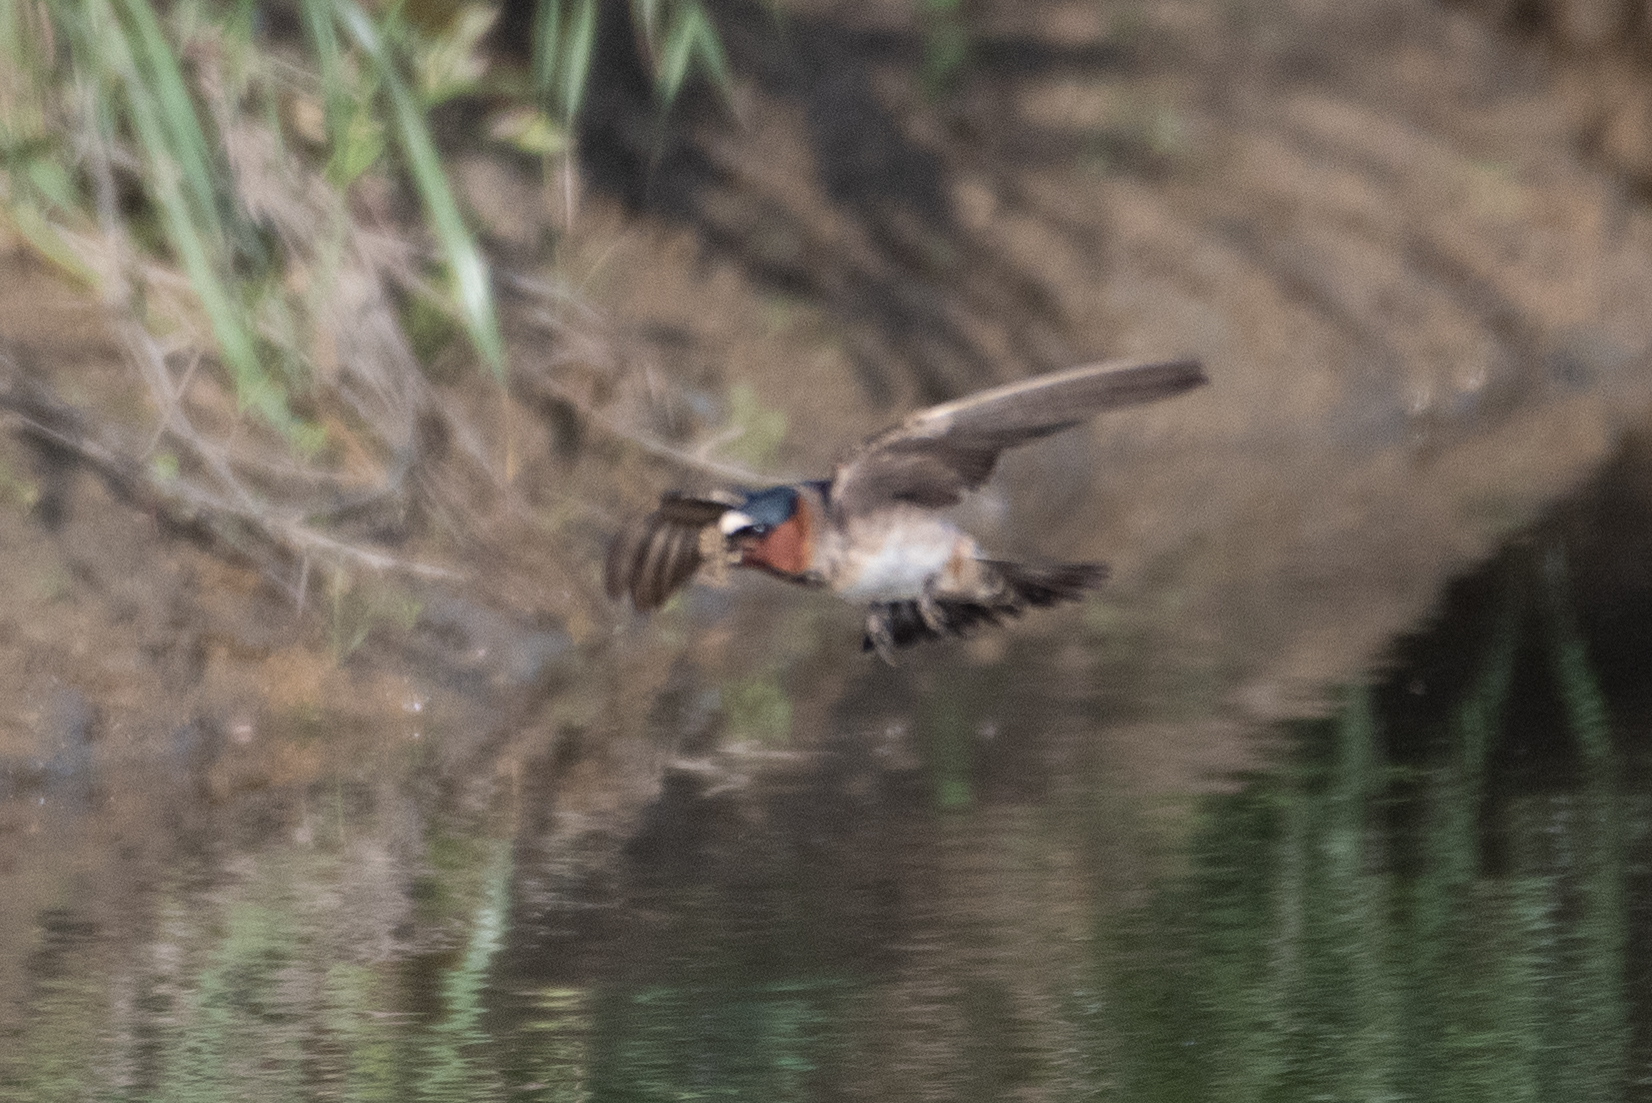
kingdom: Animalia
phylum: Chordata
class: Aves
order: Passeriformes
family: Hirundinidae
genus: Petrochelidon
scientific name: Petrochelidon pyrrhonota
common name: American cliff swallow
